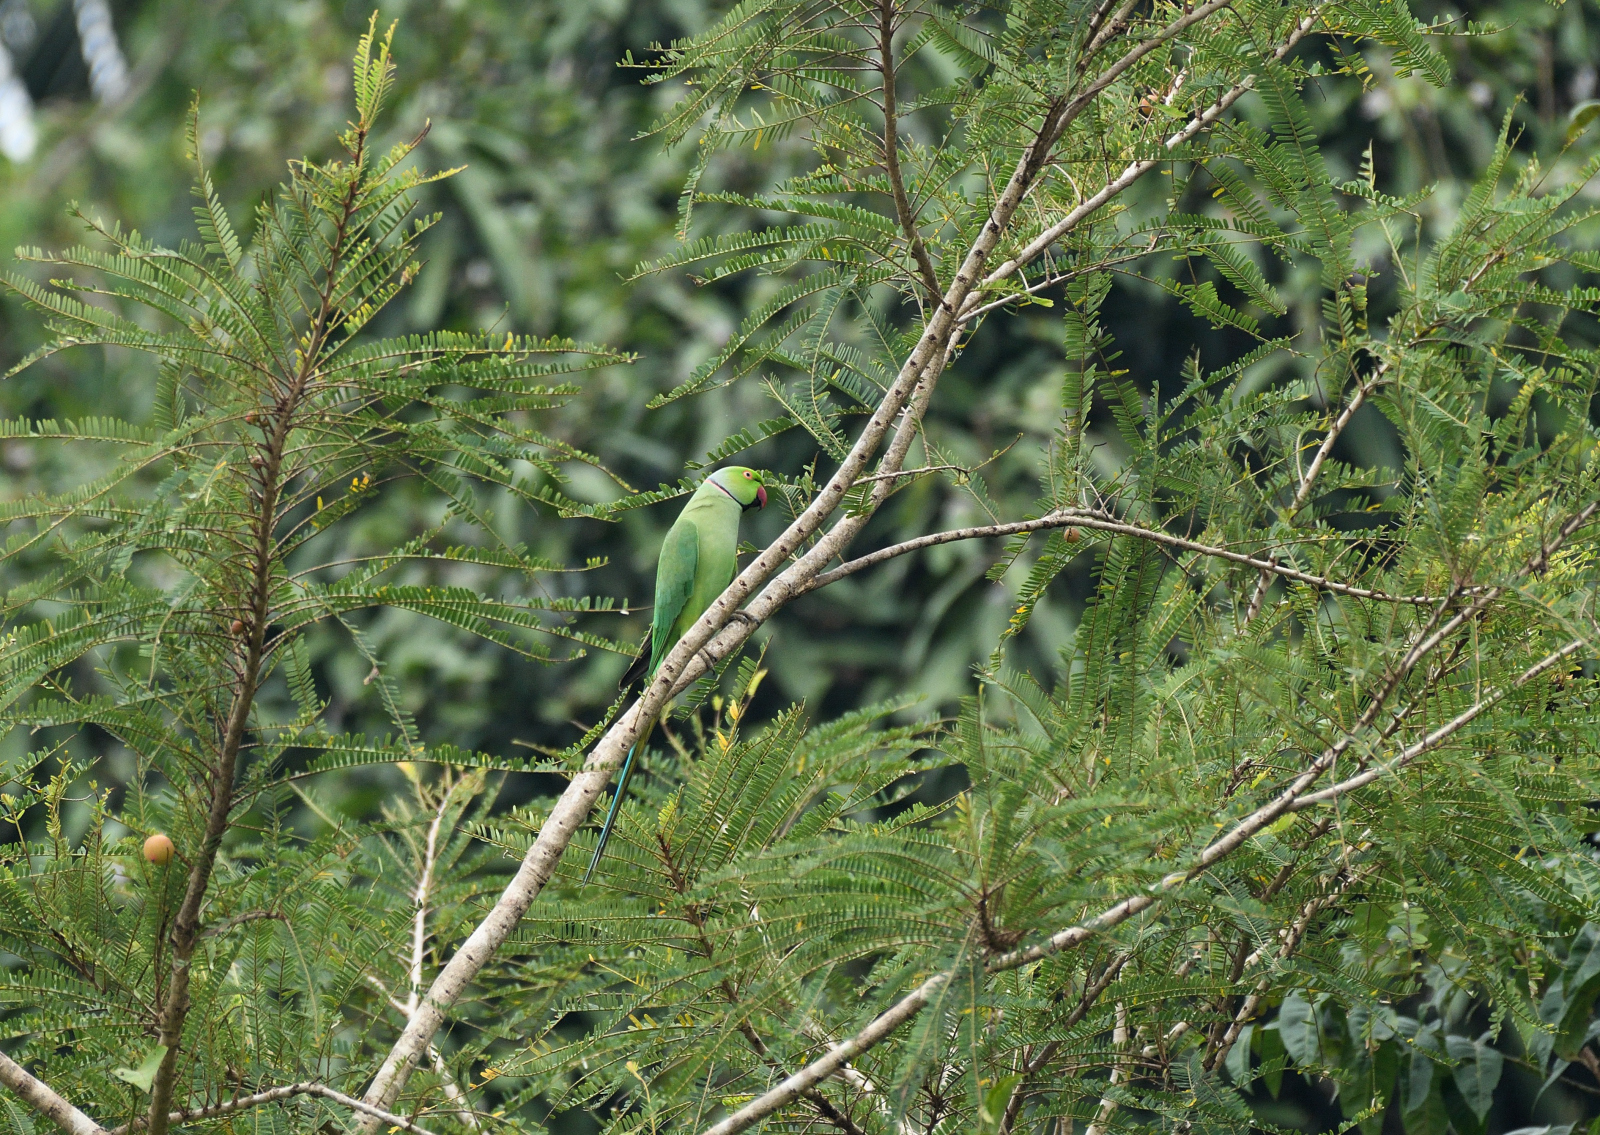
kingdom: Animalia
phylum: Chordata
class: Aves
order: Psittaciformes
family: Psittacidae
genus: Psittacula
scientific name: Psittacula krameri
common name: Rose-ringed parakeet
